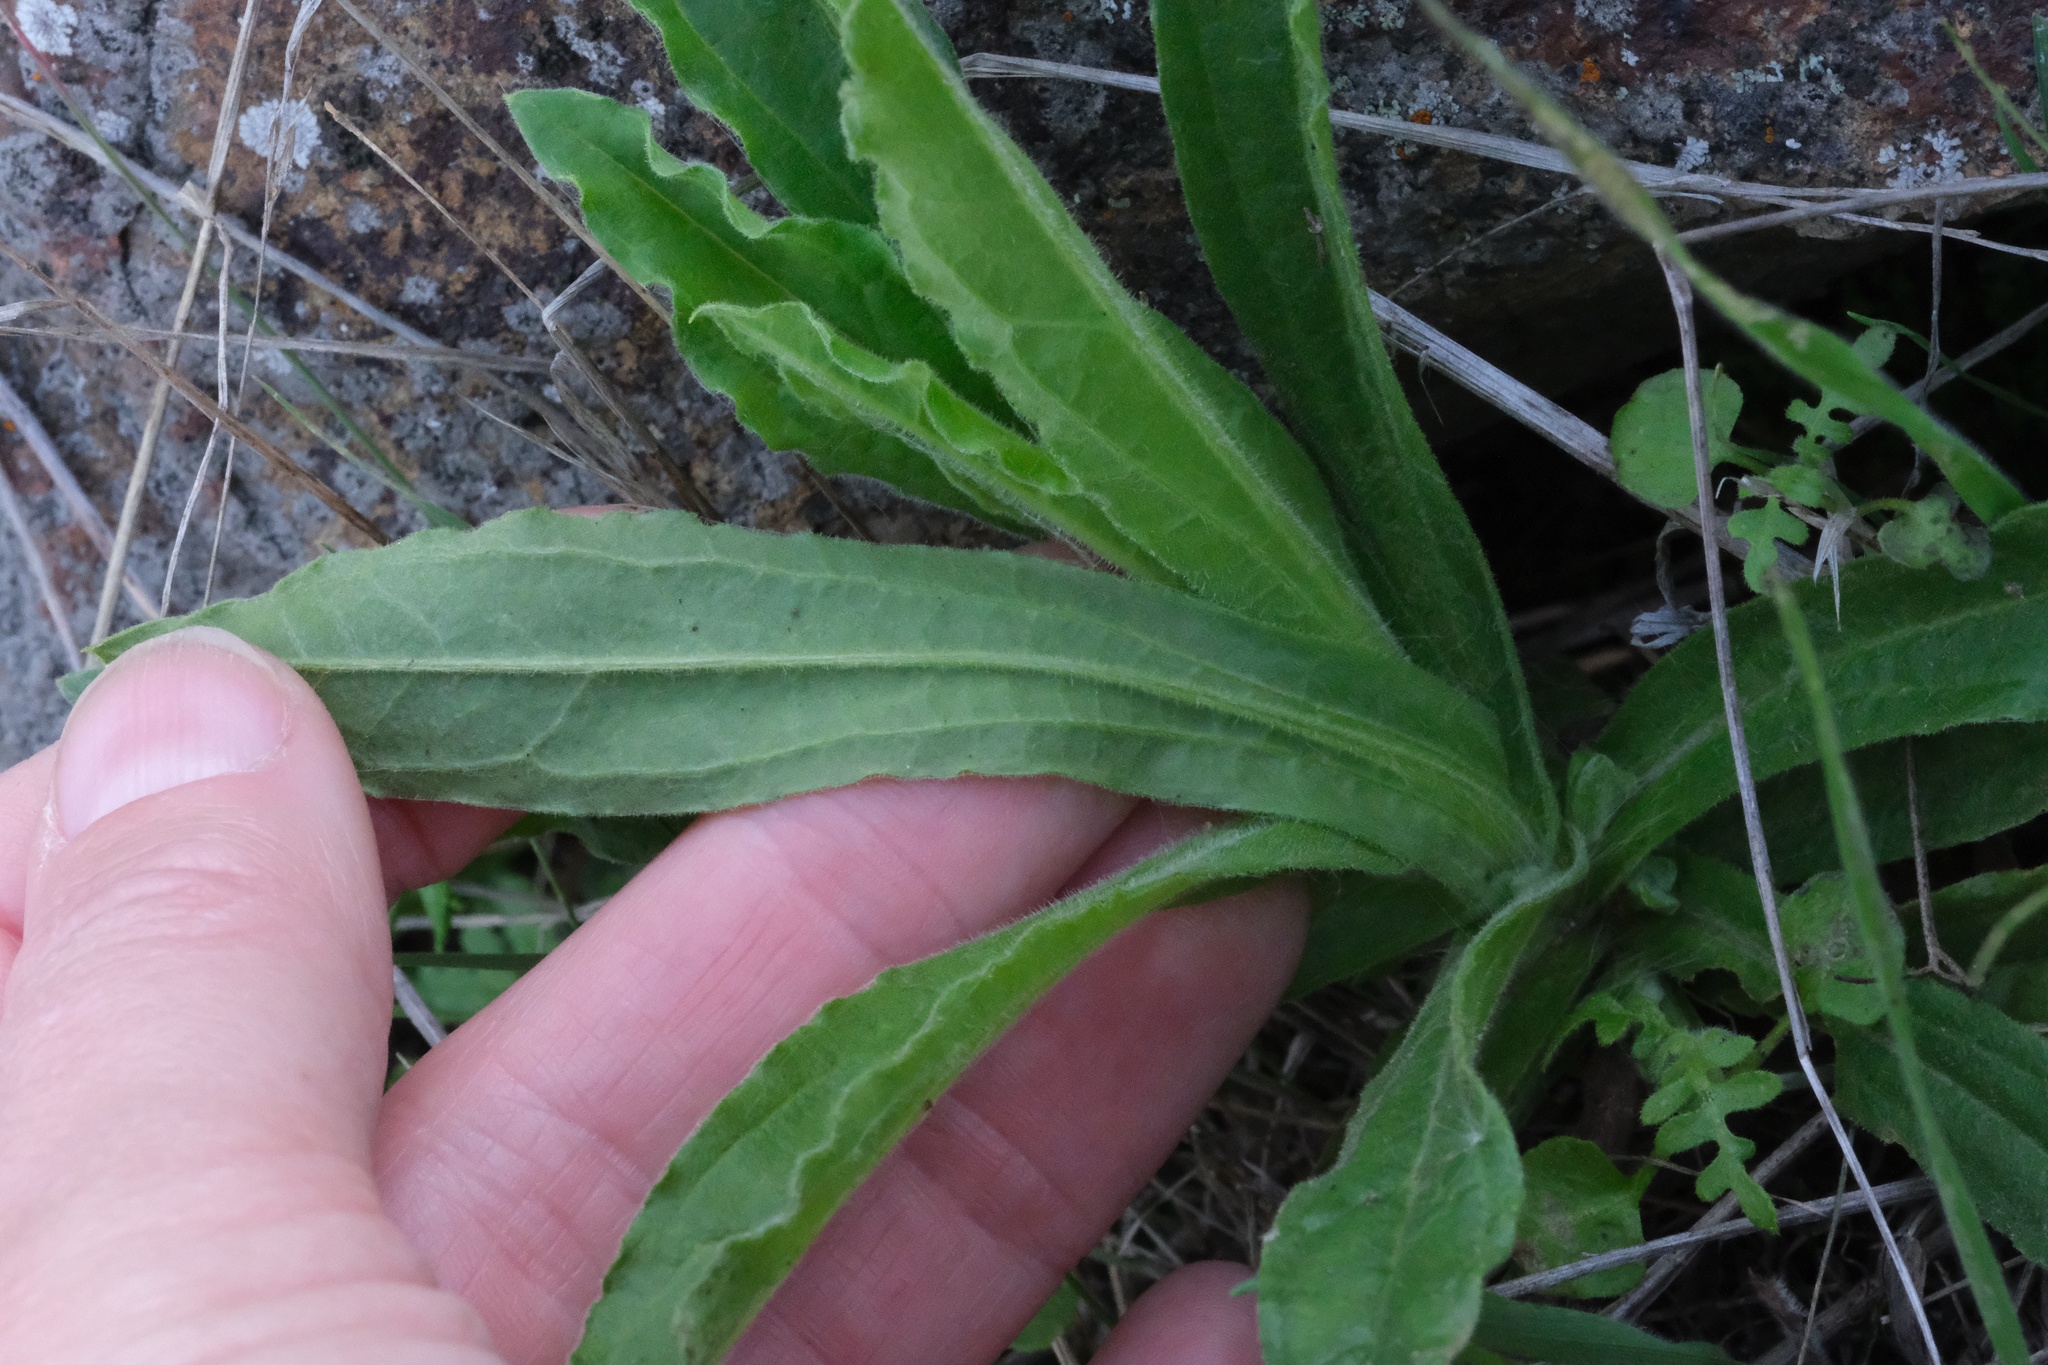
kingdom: Plantae
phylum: Tracheophyta
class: Magnoliopsida
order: Asterales
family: Asteraceae
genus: Pseudognaphalium
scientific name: Pseudognaphalium californicum
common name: California rabbit-tobacco
